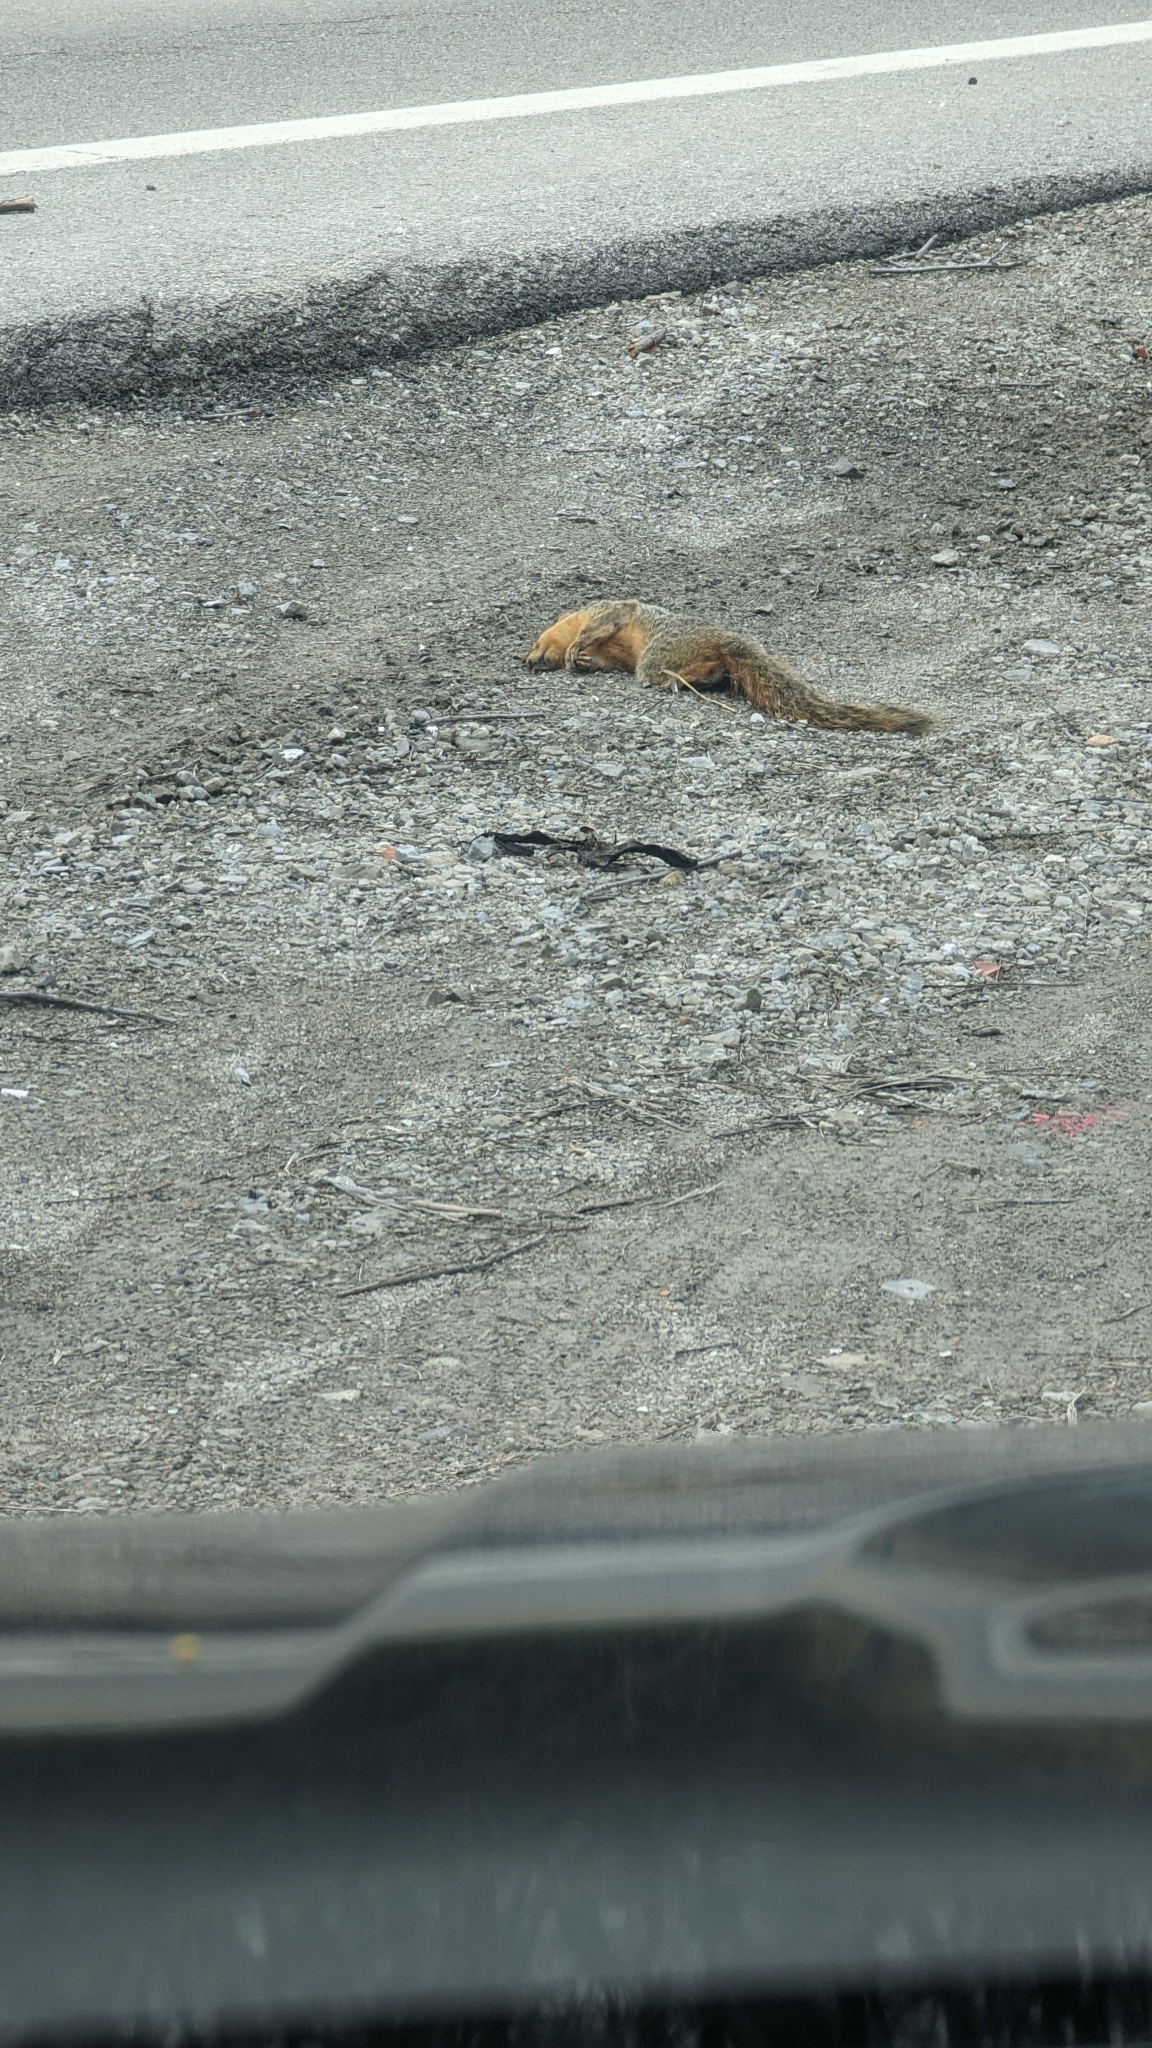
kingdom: Animalia
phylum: Chordata
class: Mammalia
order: Rodentia
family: Sciuridae
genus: Sciurus
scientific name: Sciurus niger
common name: Fox squirrel
